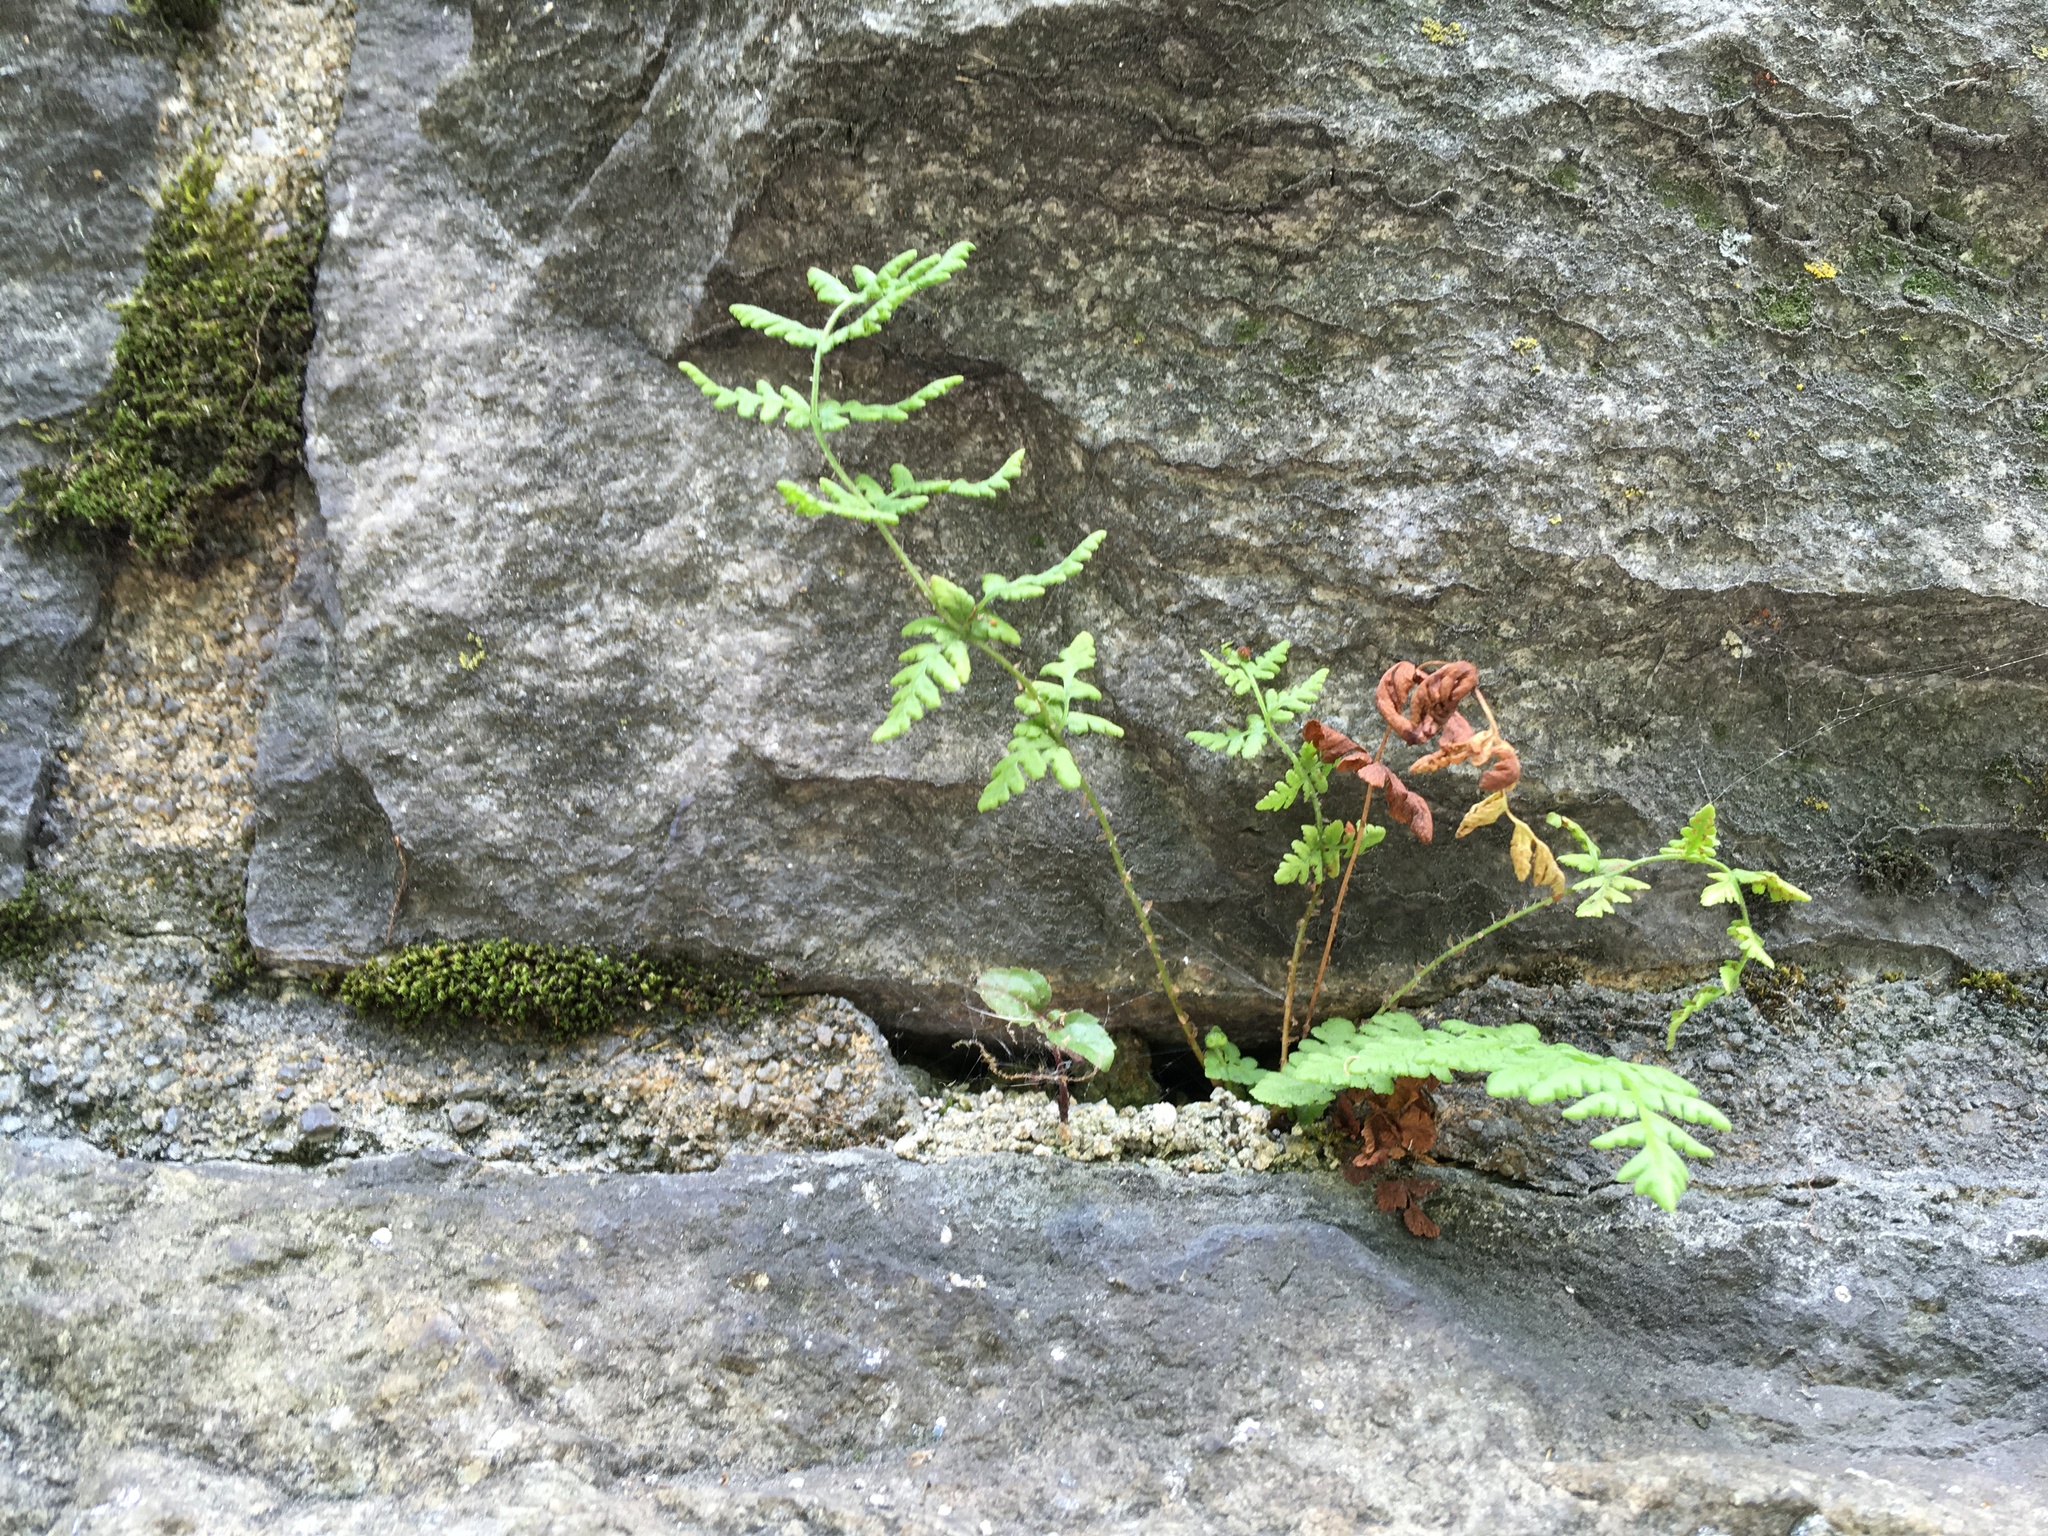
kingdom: Plantae
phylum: Tracheophyta
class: Polypodiopsida
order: Polypodiales
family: Woodsiaceae
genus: Physematium
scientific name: Physematium obtusum
